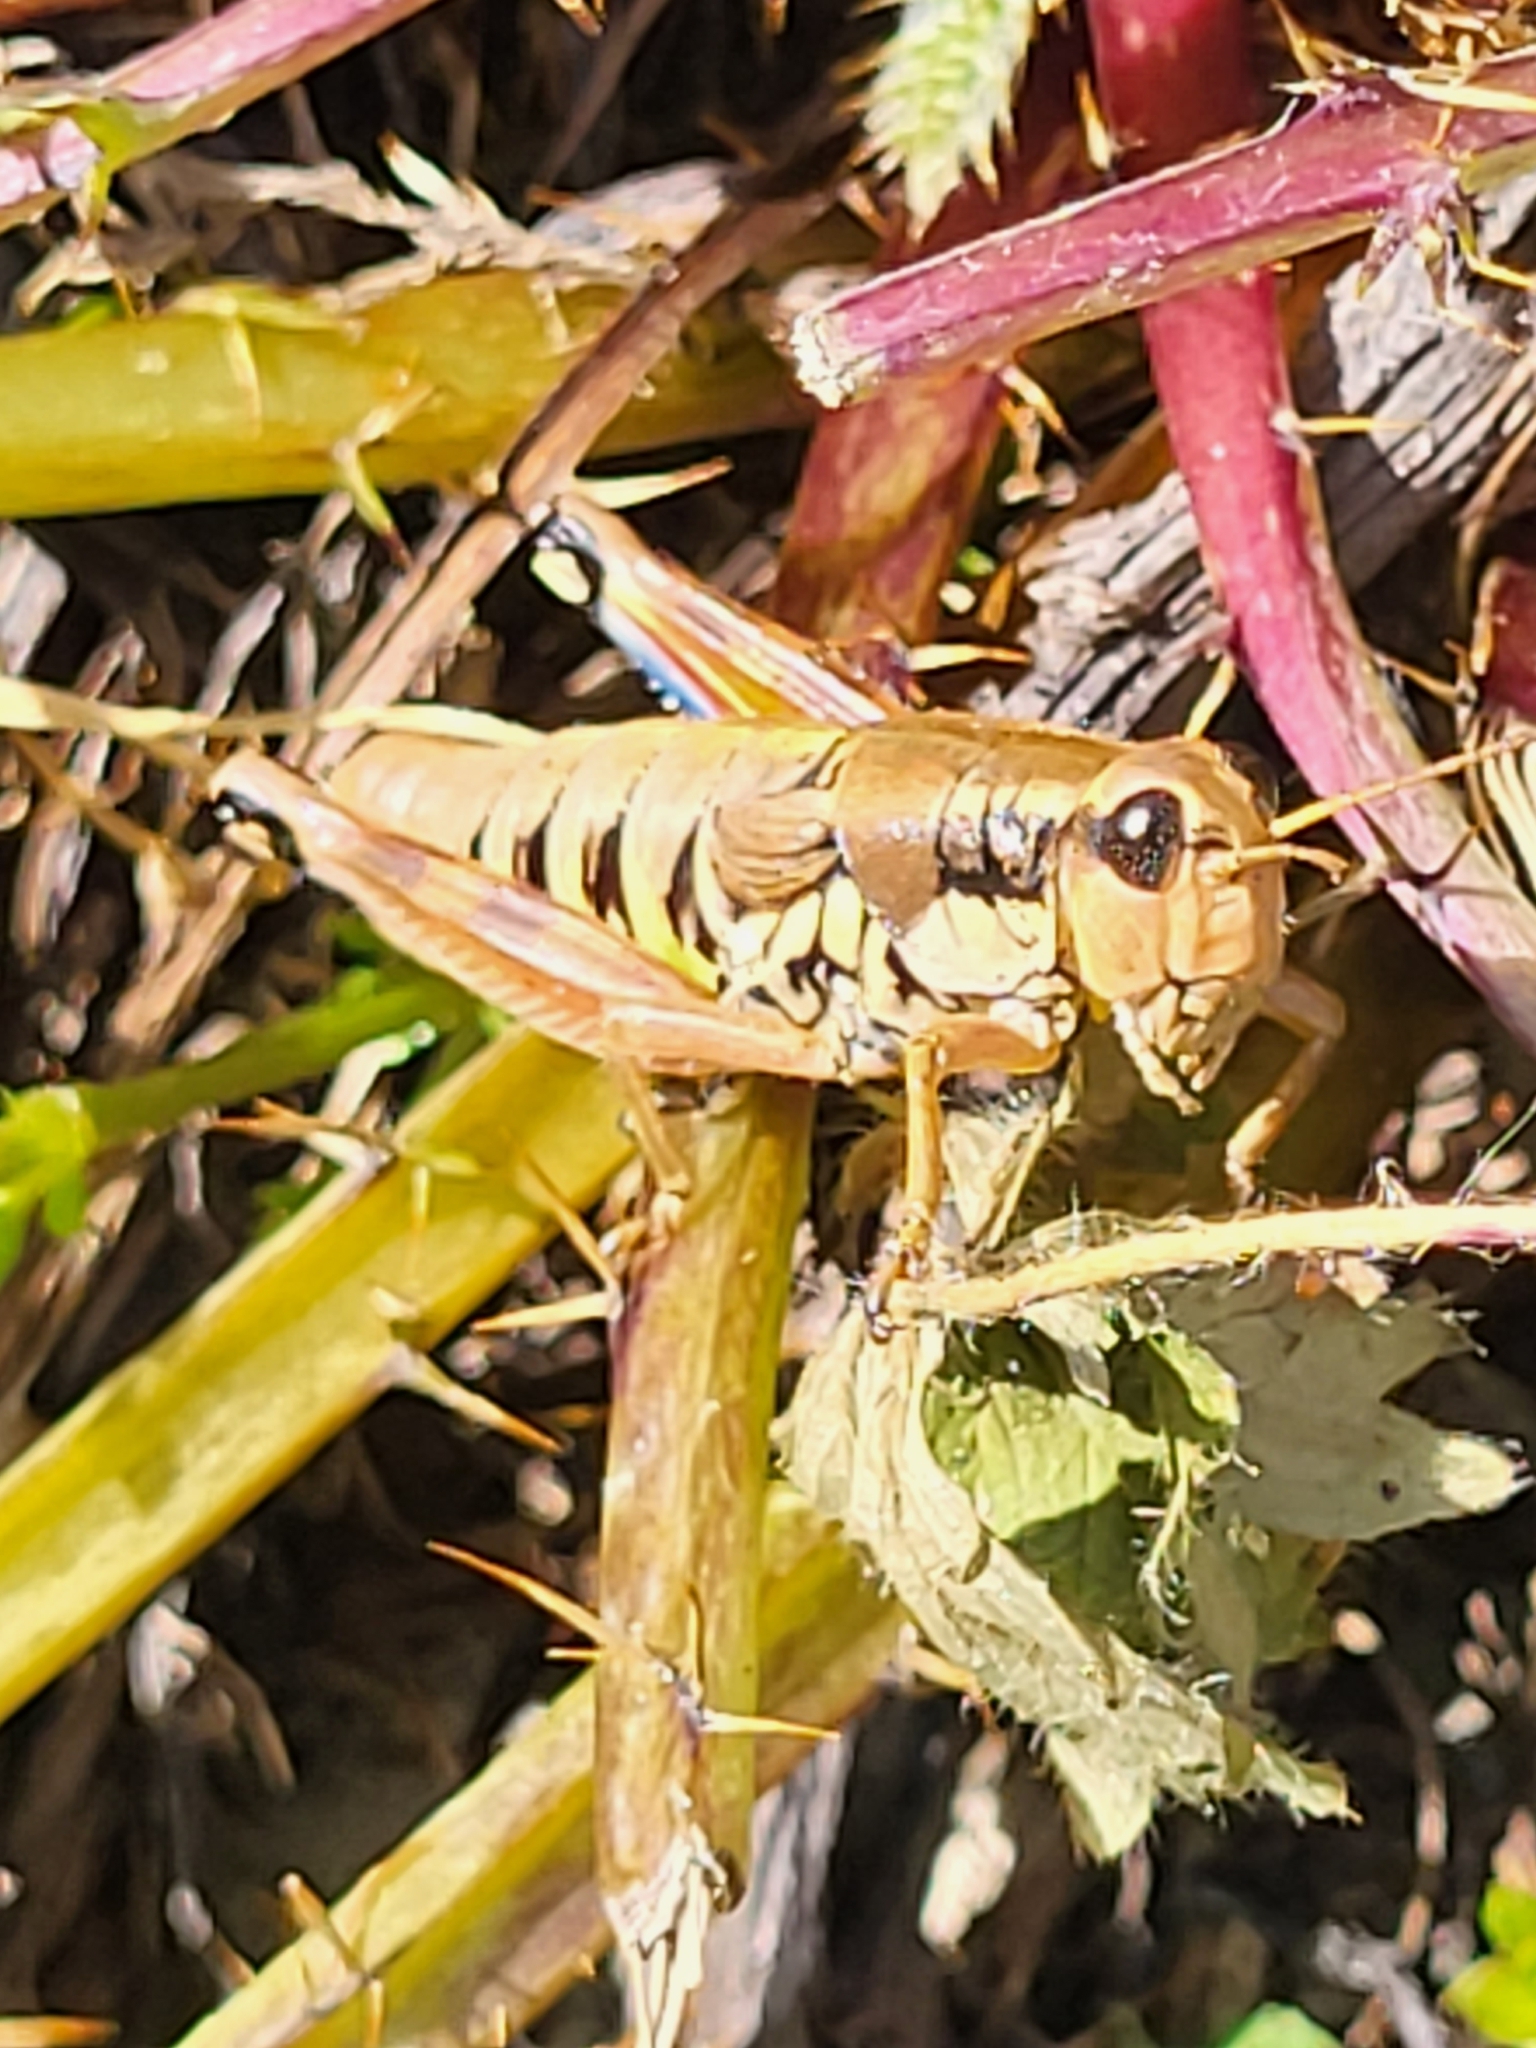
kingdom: Animalia
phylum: Arthropoda
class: Insecta
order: Orthoptera
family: Acrididae
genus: Podisma
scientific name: Podisma pedestris
